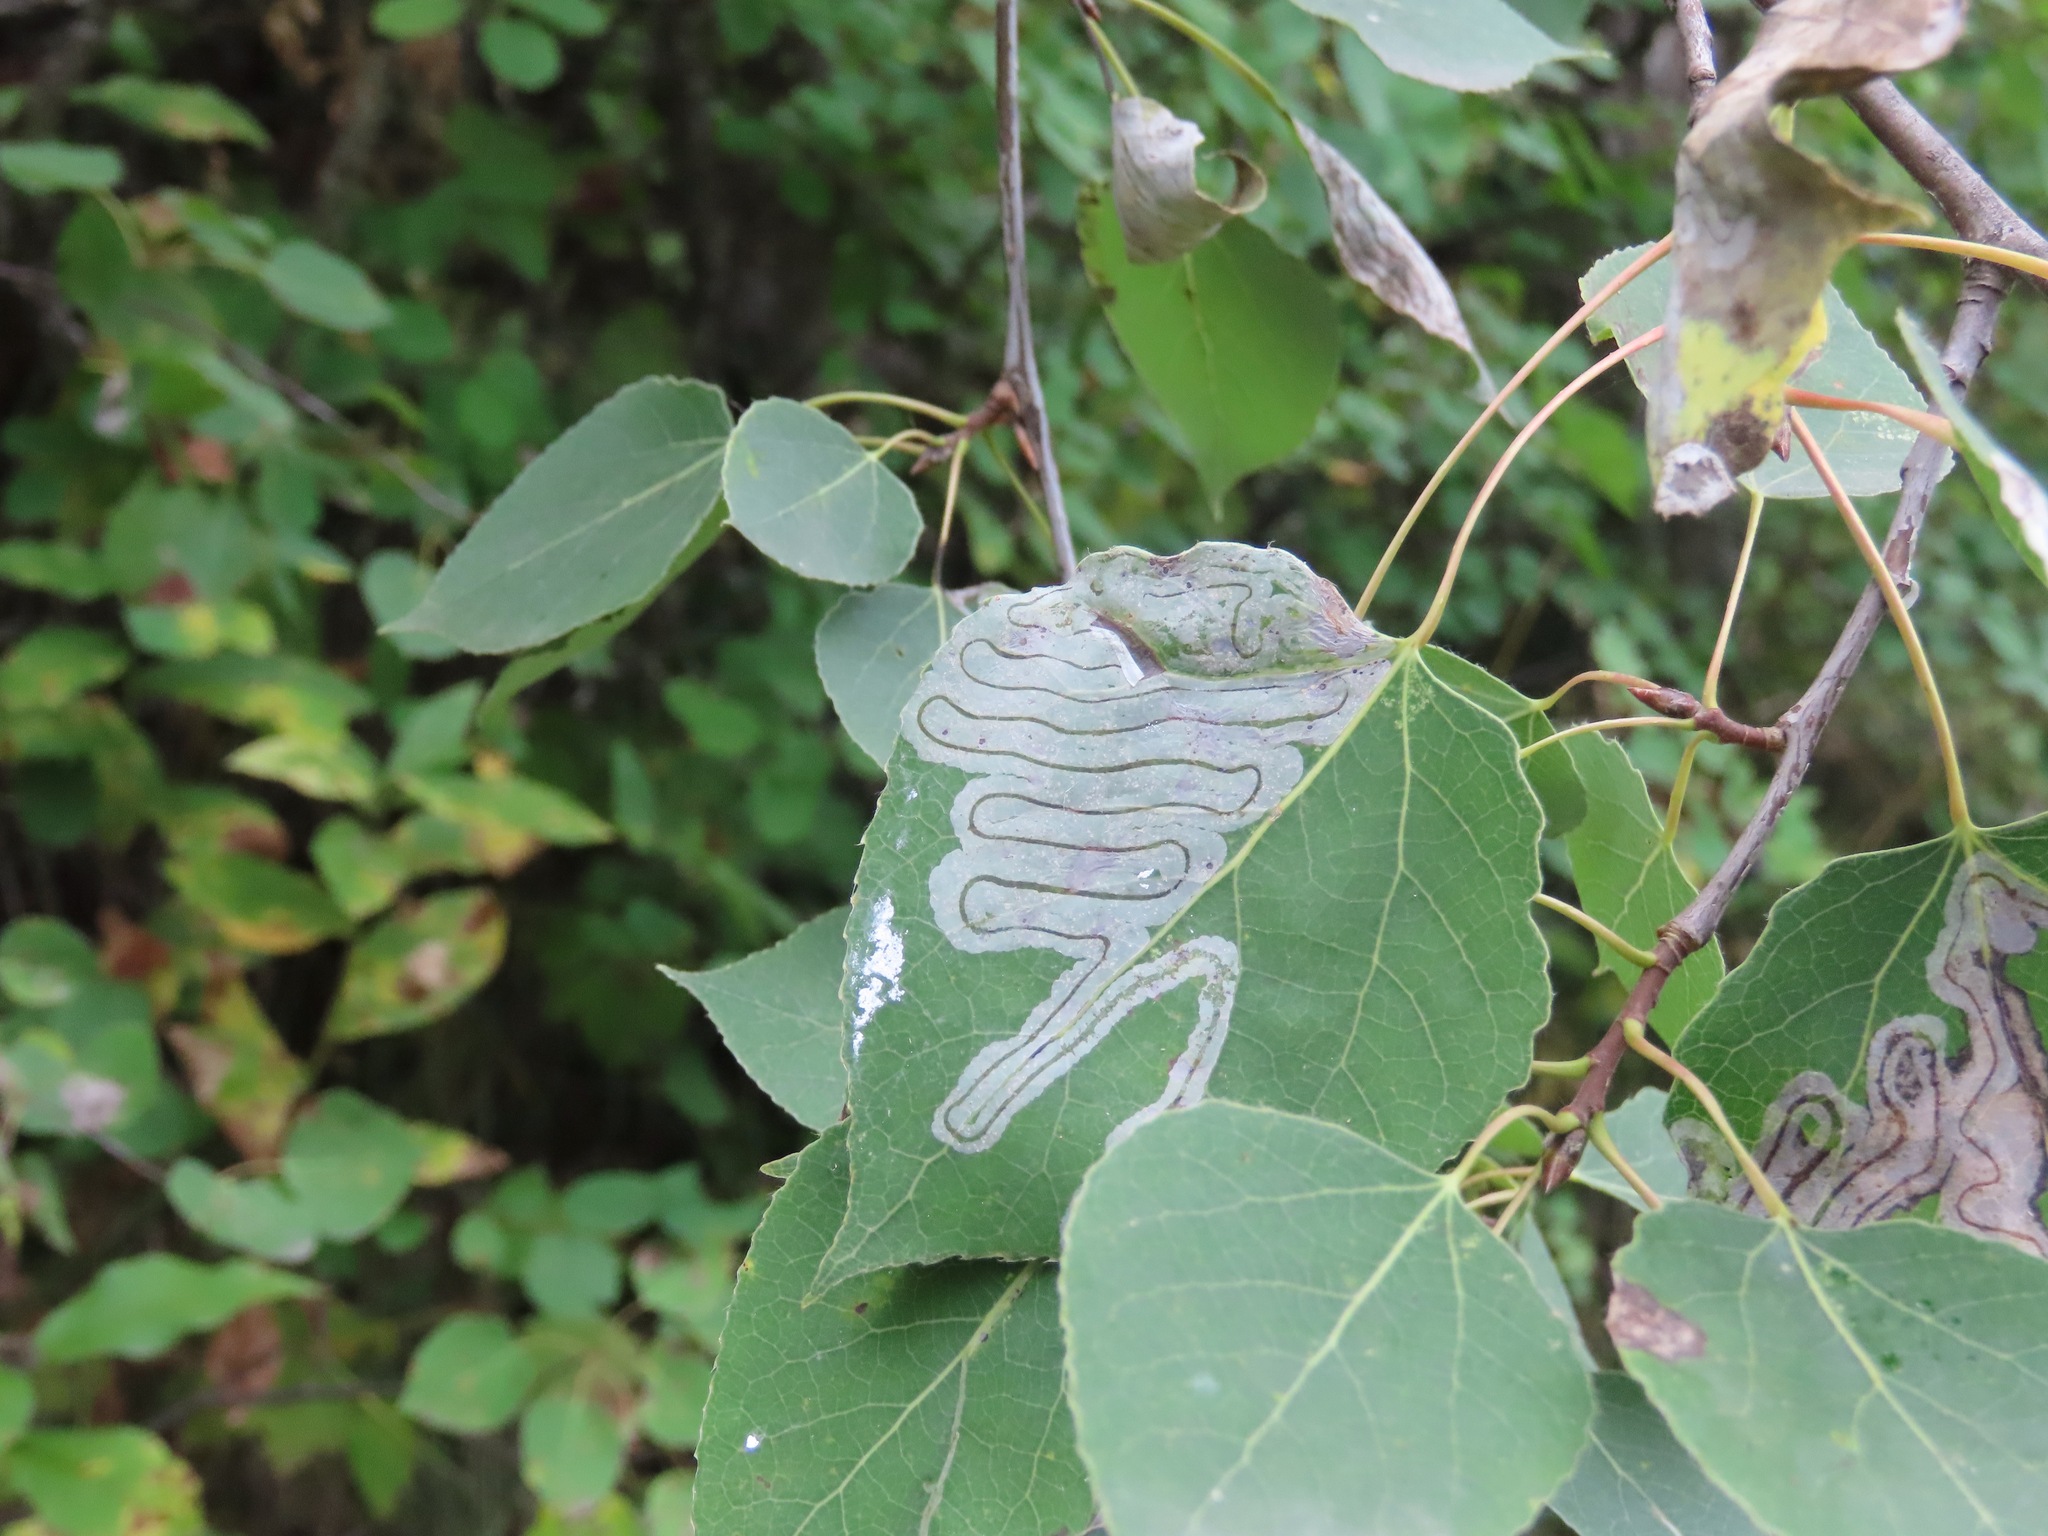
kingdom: Plantae
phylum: Tracheophyta
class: Magnoliopsida
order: Malpighiales
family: Salicaceae
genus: Populus
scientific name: Populus tremuloides
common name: Quaking aspen
